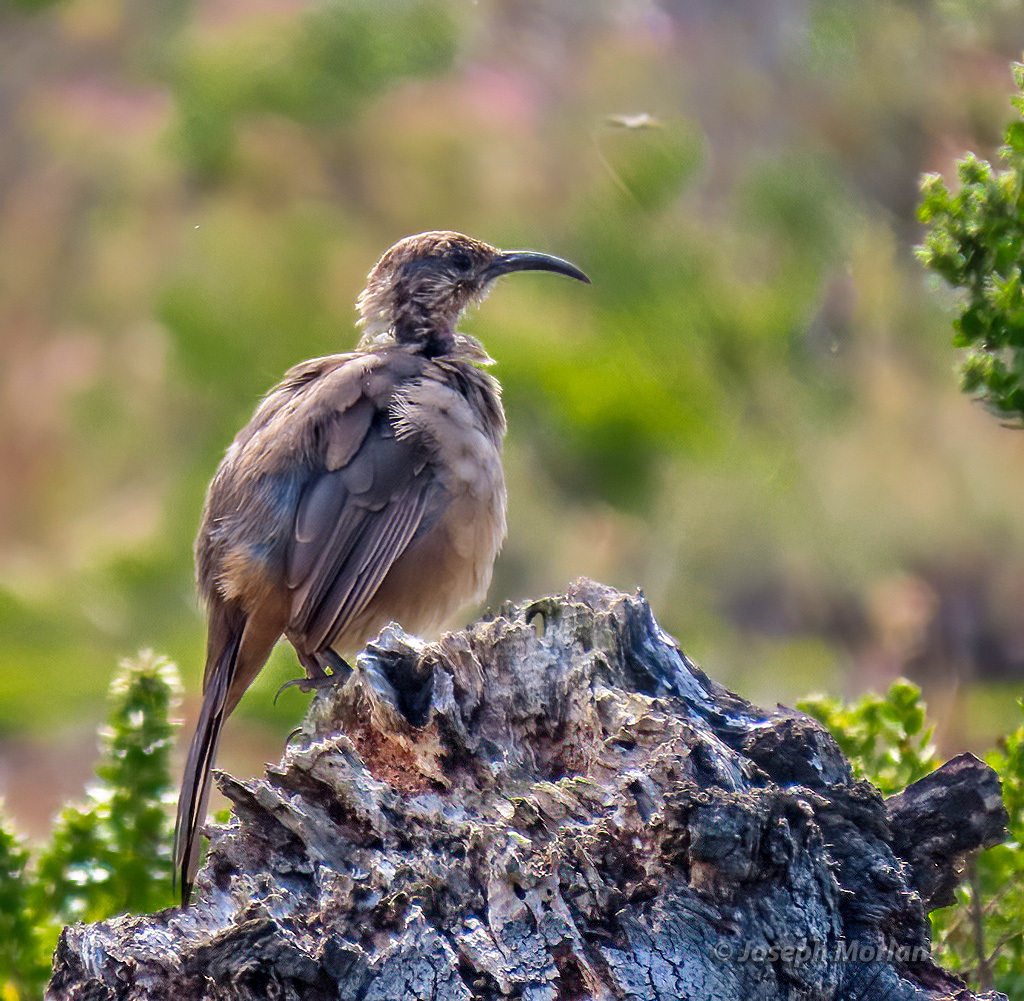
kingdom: Animalia
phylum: Chordata
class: Aves
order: Passeriformes
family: Mimidae
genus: Toxostoma
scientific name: Toxostoma redivivum
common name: California thrasher
